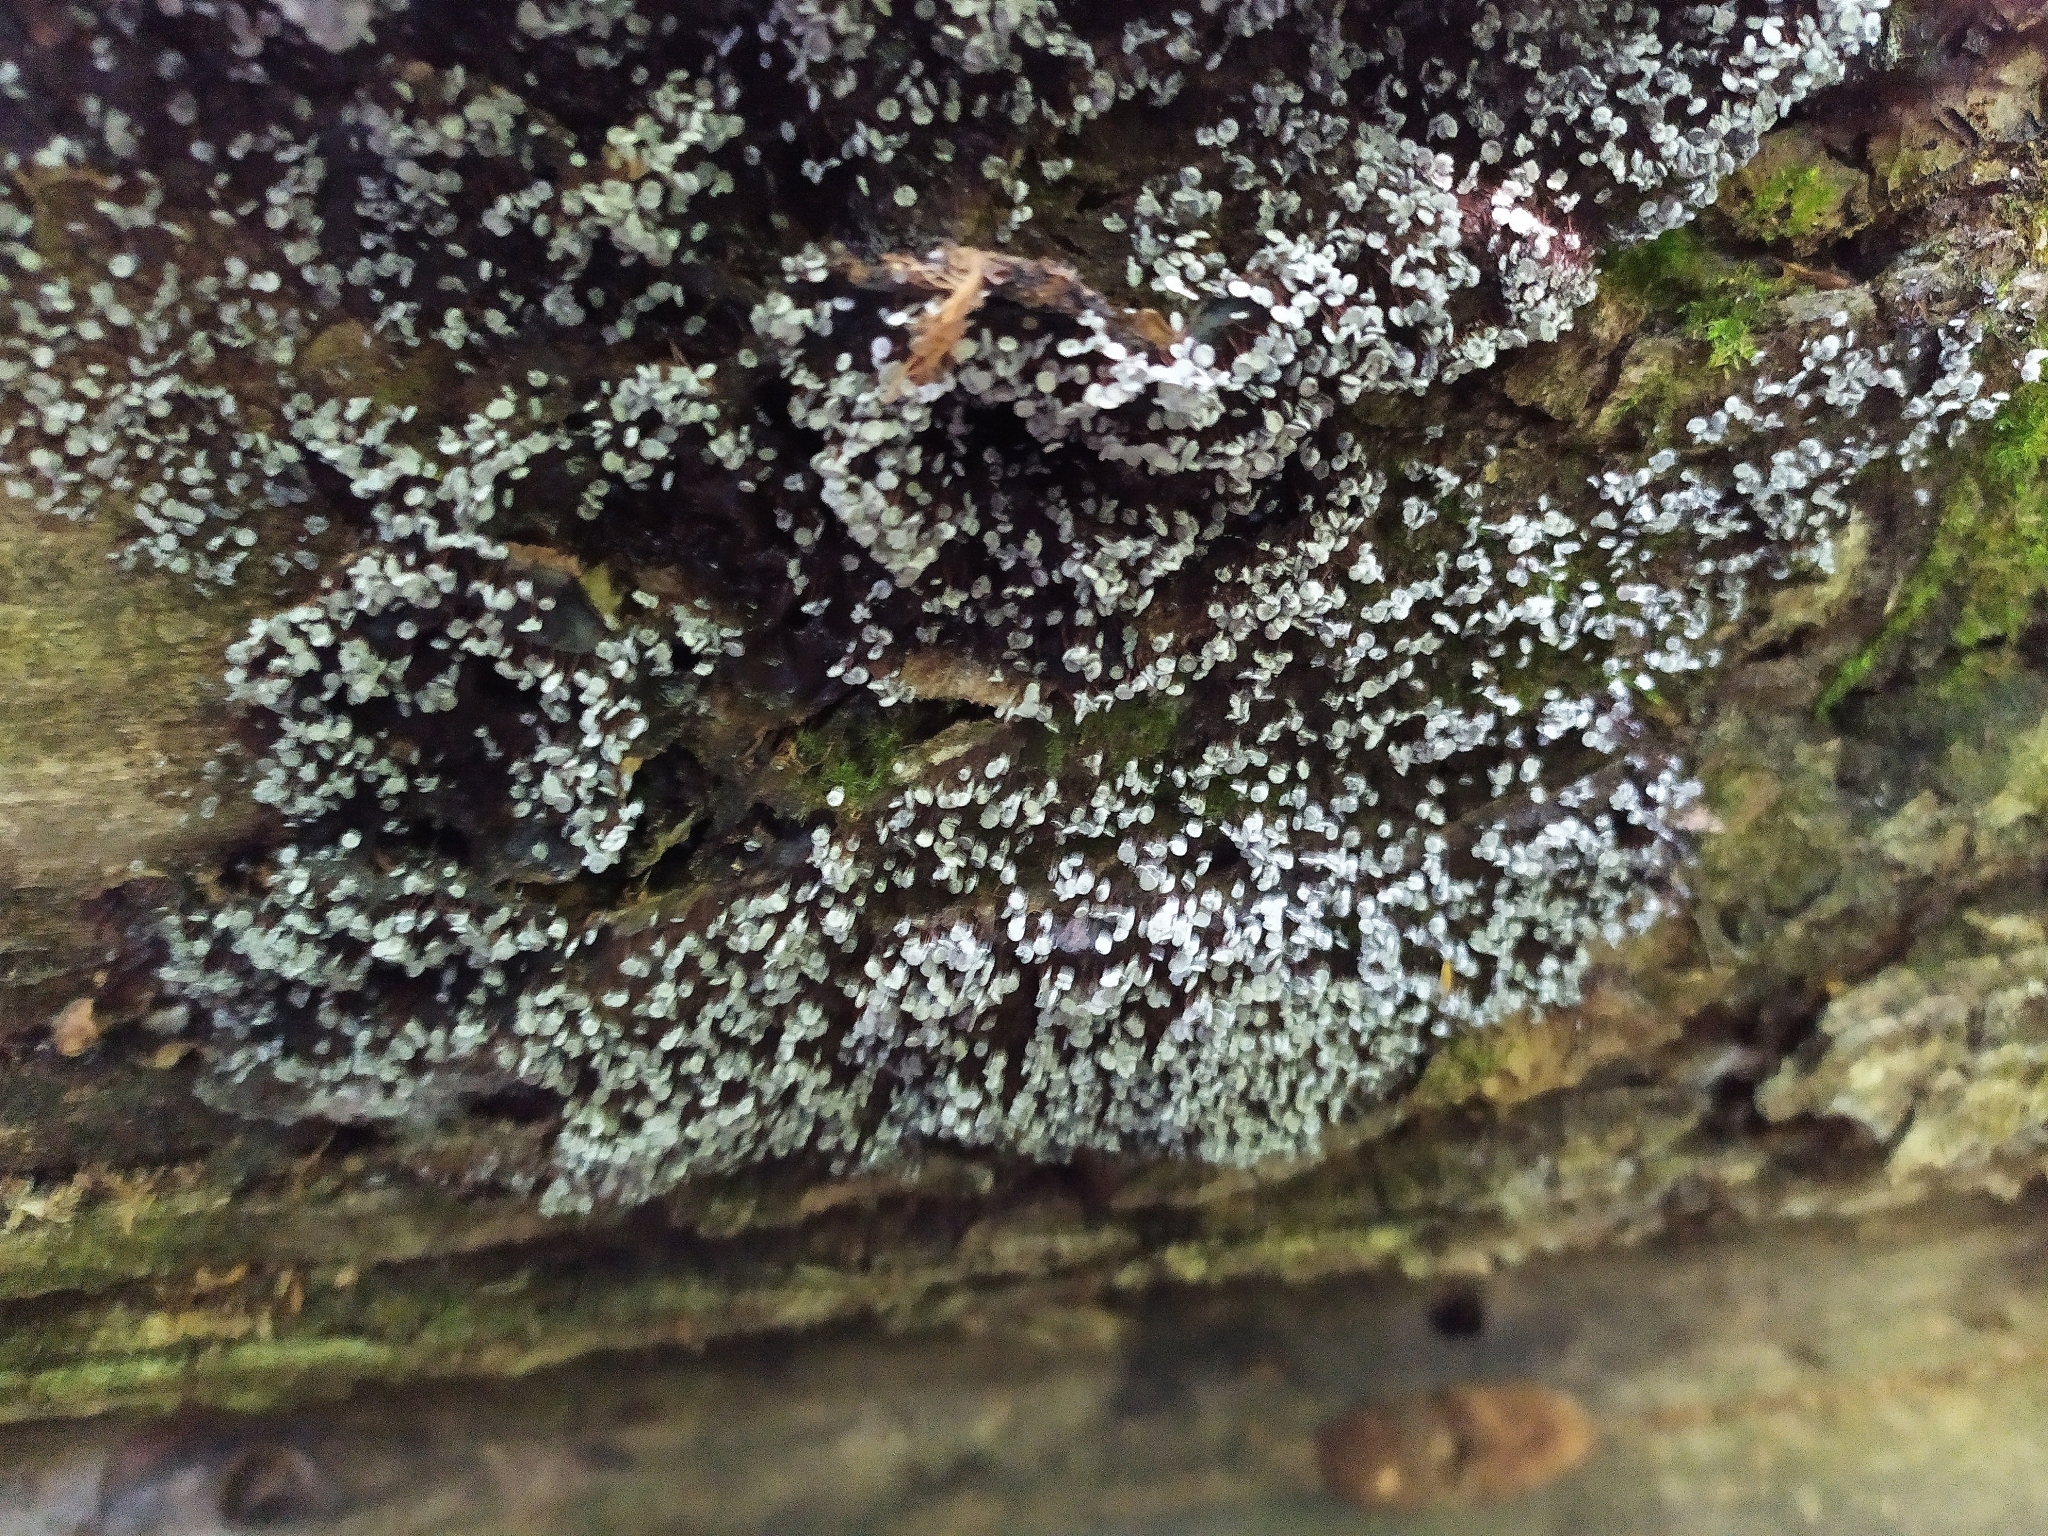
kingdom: Protozoa
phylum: Mycetozoa
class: Myxomycetes
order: Physarales
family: Physaraceae
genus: Physarum
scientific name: Physarum pezizoideum
